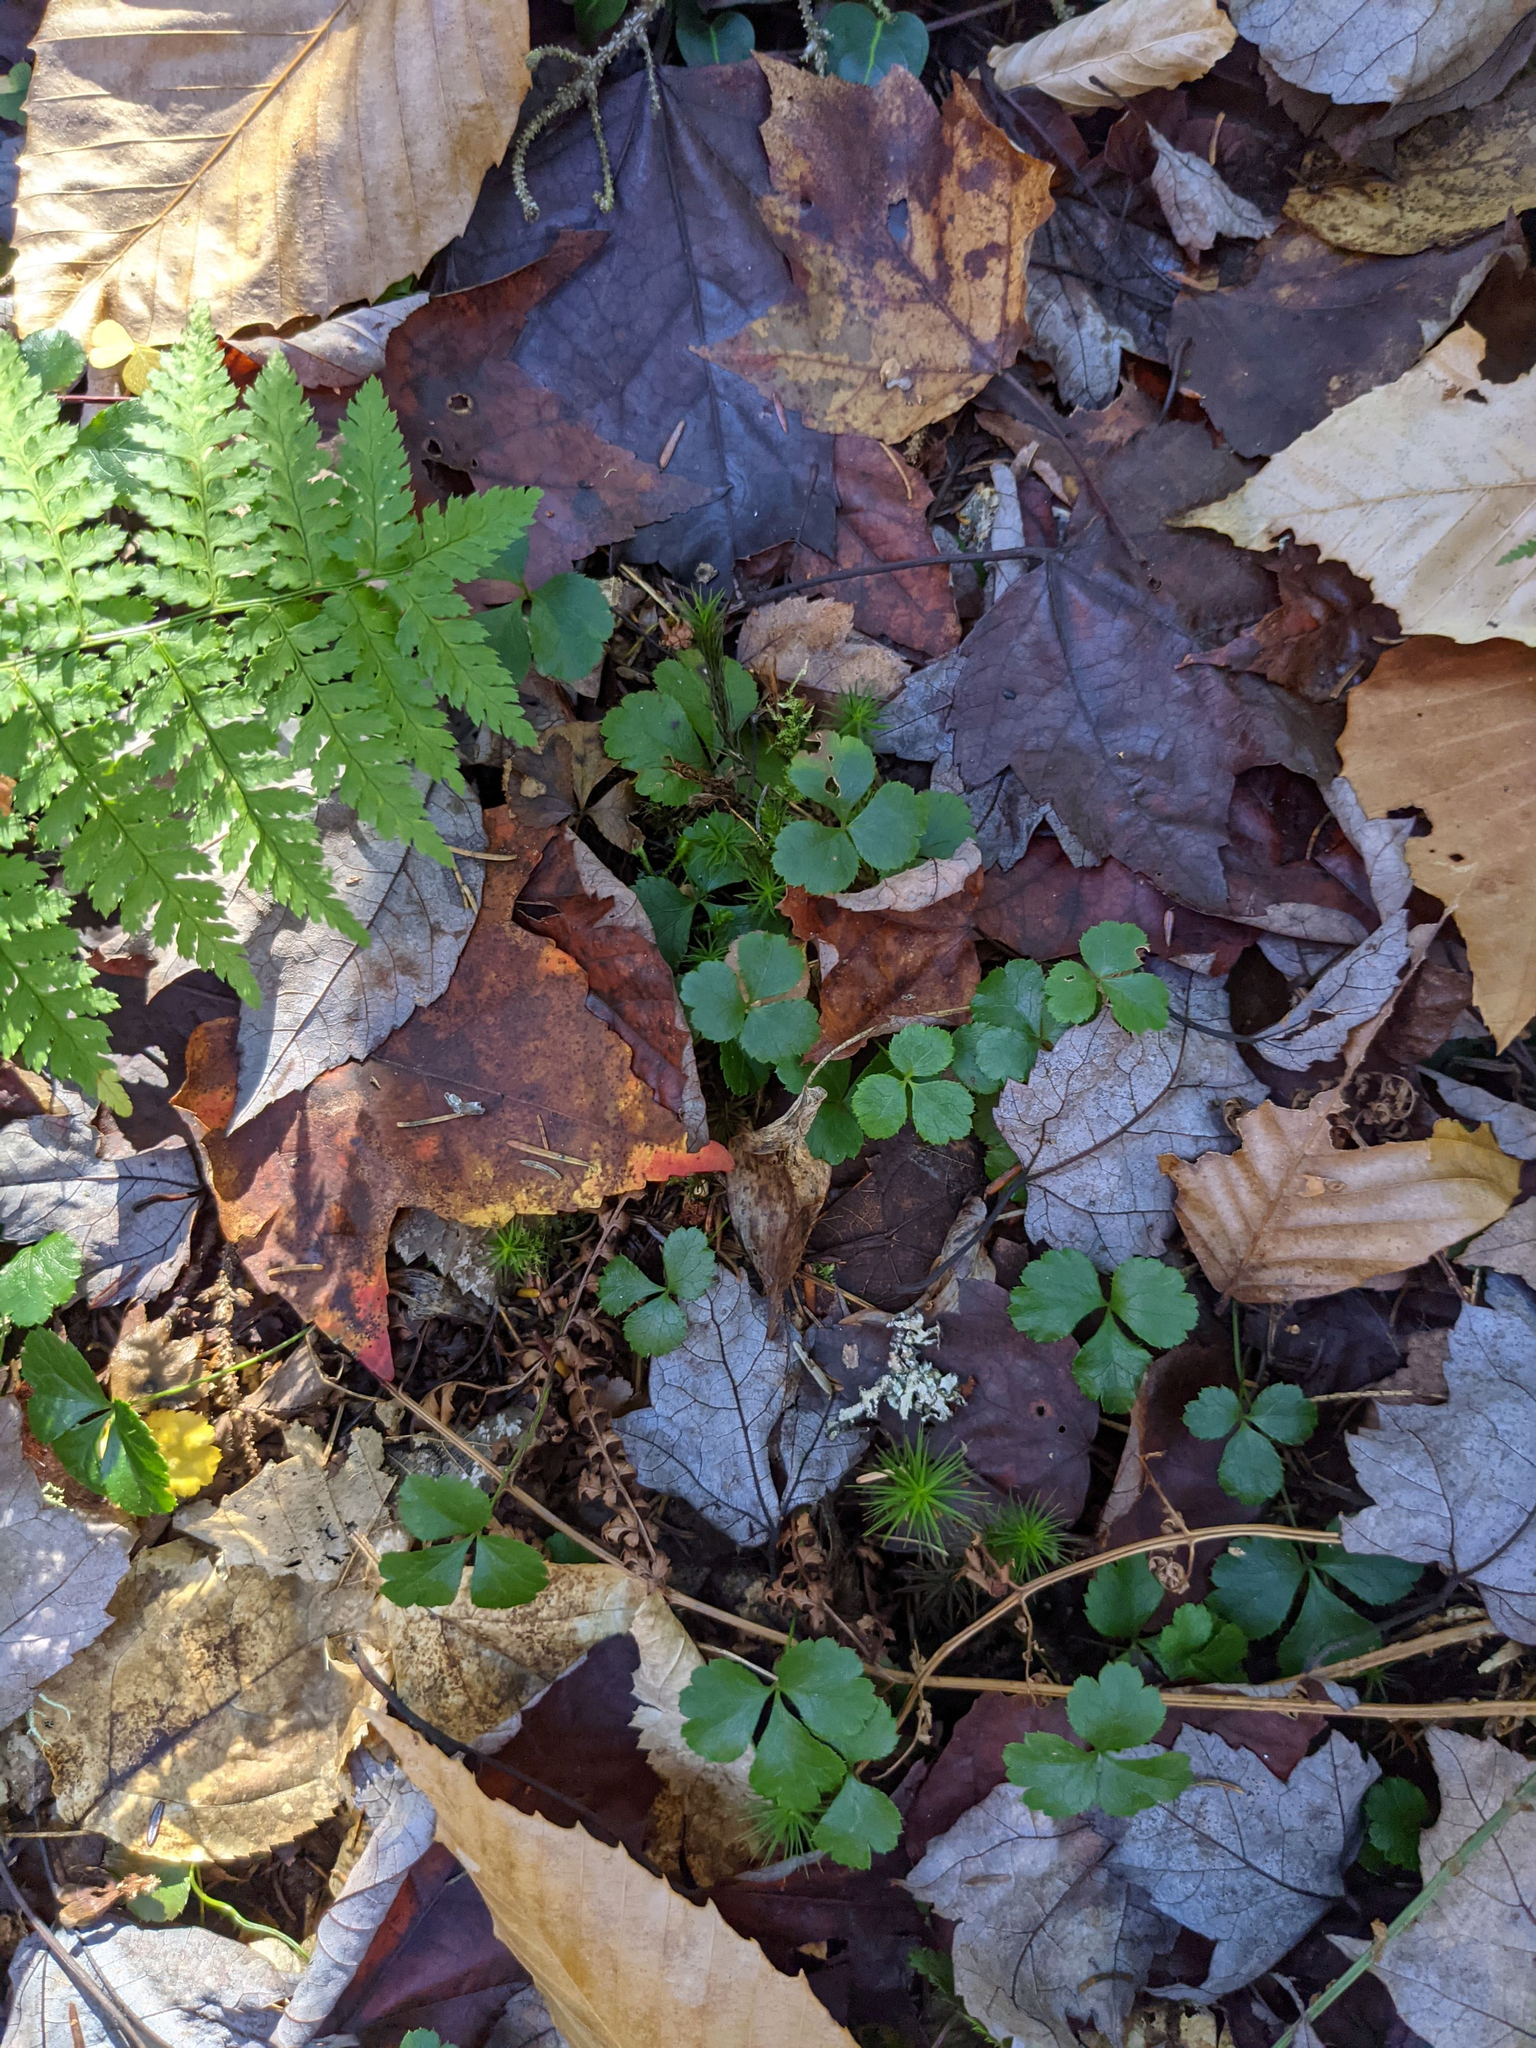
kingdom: Plantae
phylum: Tracheophyta
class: Magnoliopsida
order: Ranunculales
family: Ranunculaceae
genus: Coptis
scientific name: Coptis trifolia
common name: Canker-root
